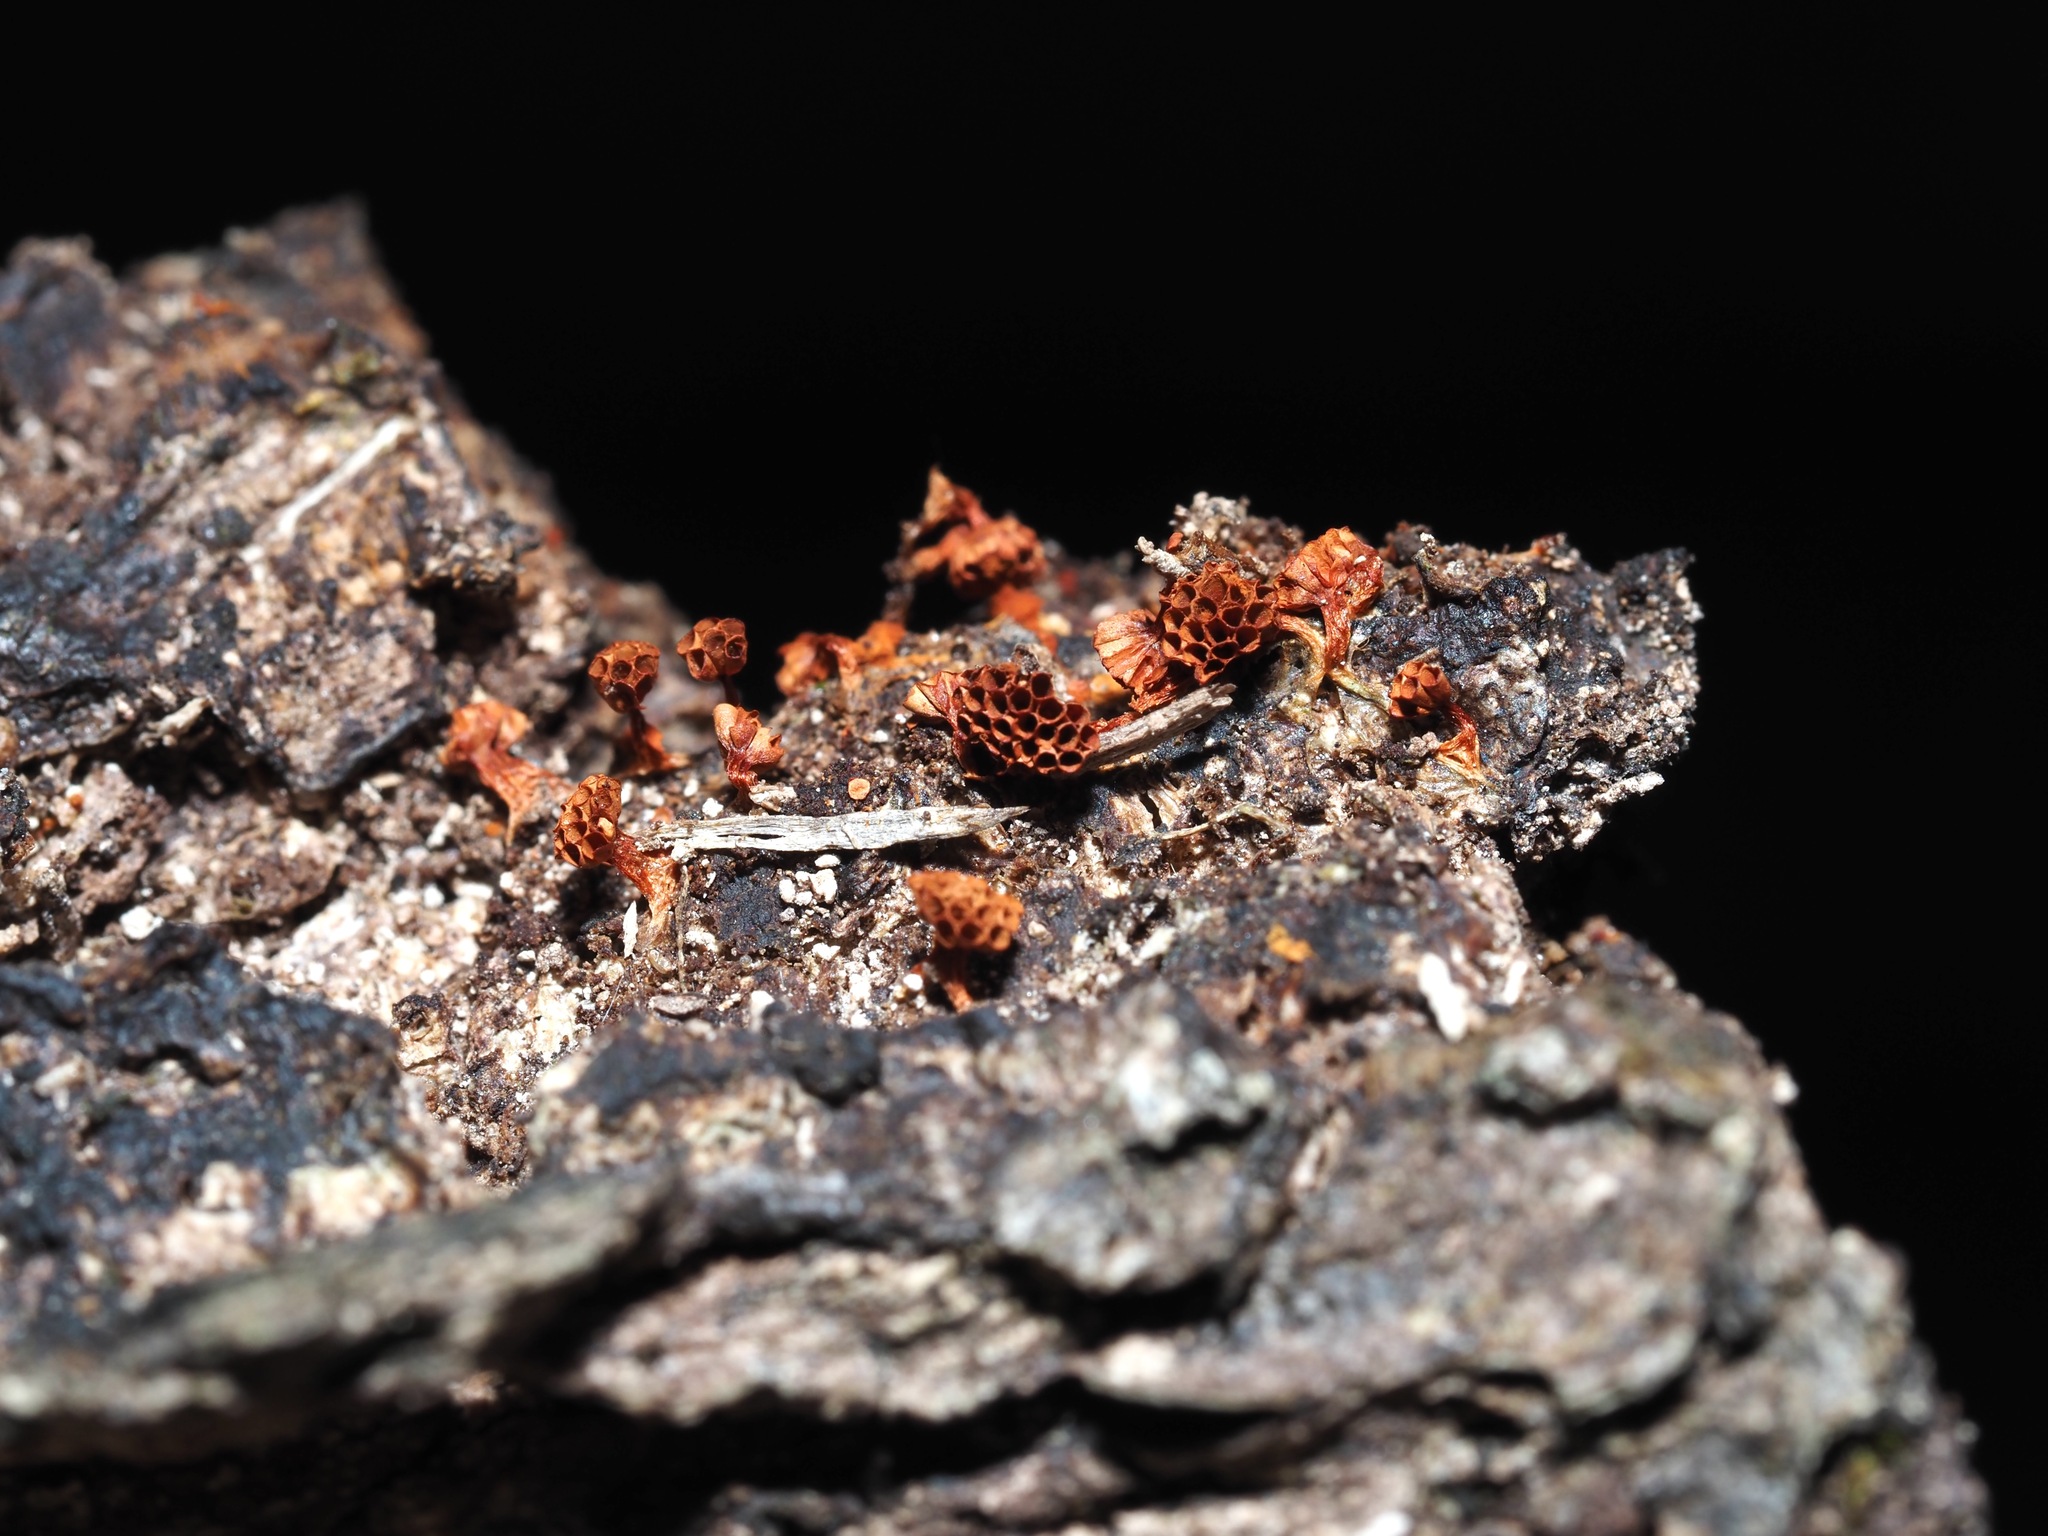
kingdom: Protozoa
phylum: Mycetozoa
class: Myxomycetes
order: Trichiales
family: Trichiaceae
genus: Metatrichia
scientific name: Metatrichia vesparia
